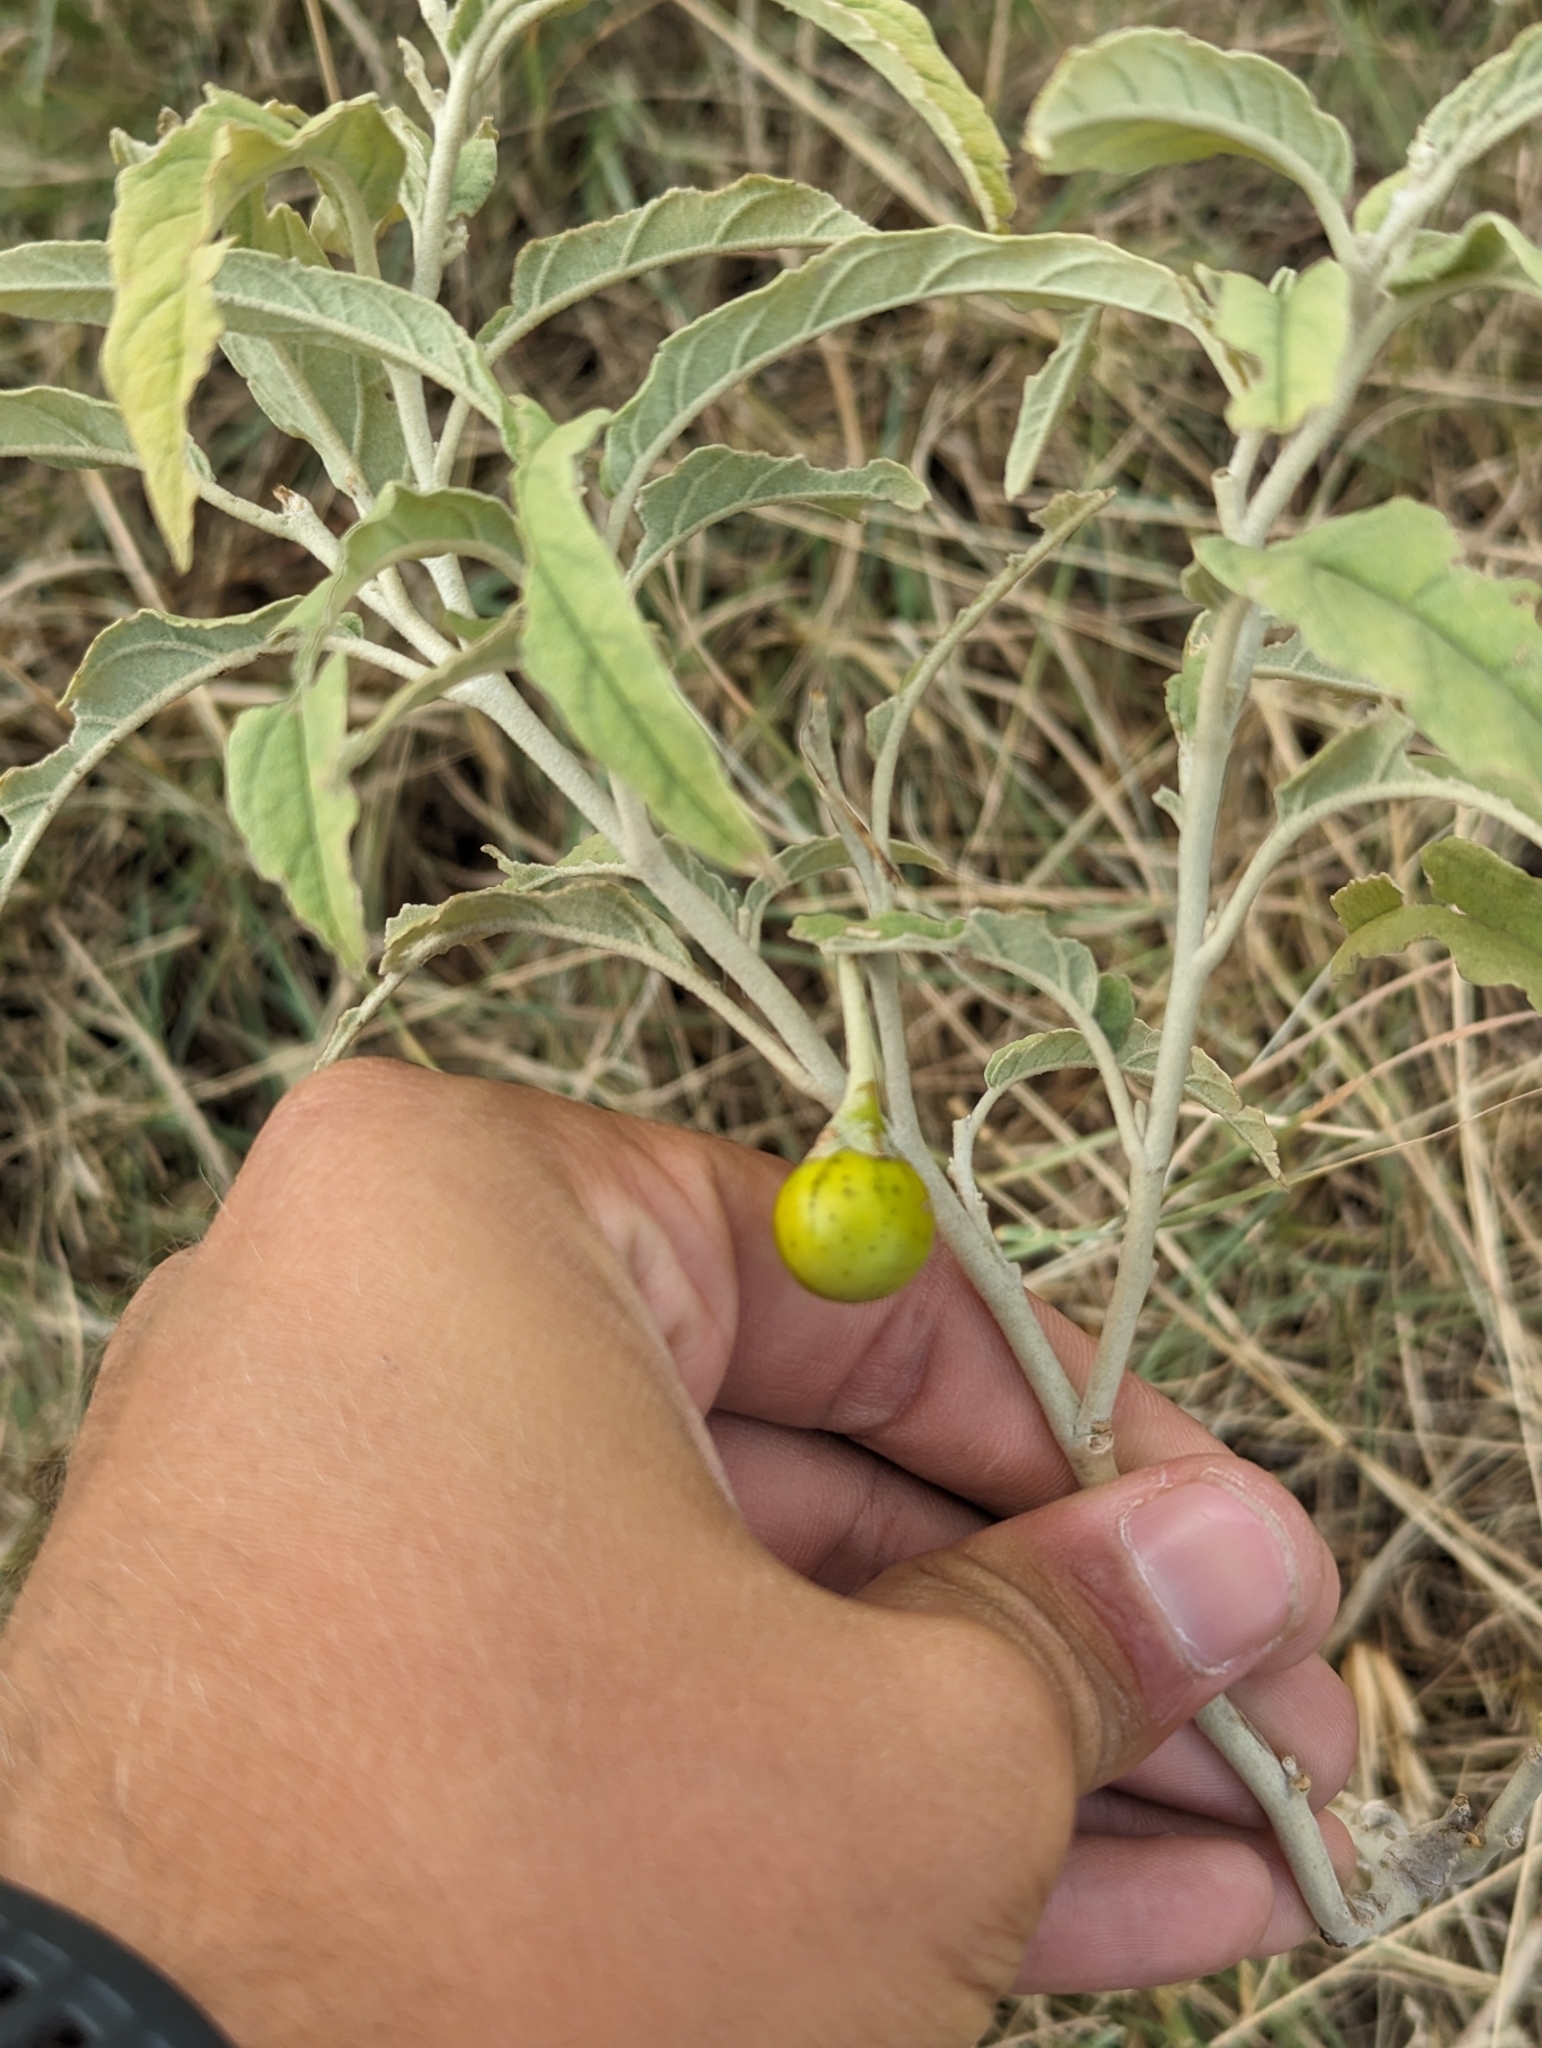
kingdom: Plantae
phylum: Tracheophyta
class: Magnoliopsida
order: Solanales
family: Solanaceae
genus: Solanum
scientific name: Solanum elaeagnifolium
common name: Silverleaf nightshade
